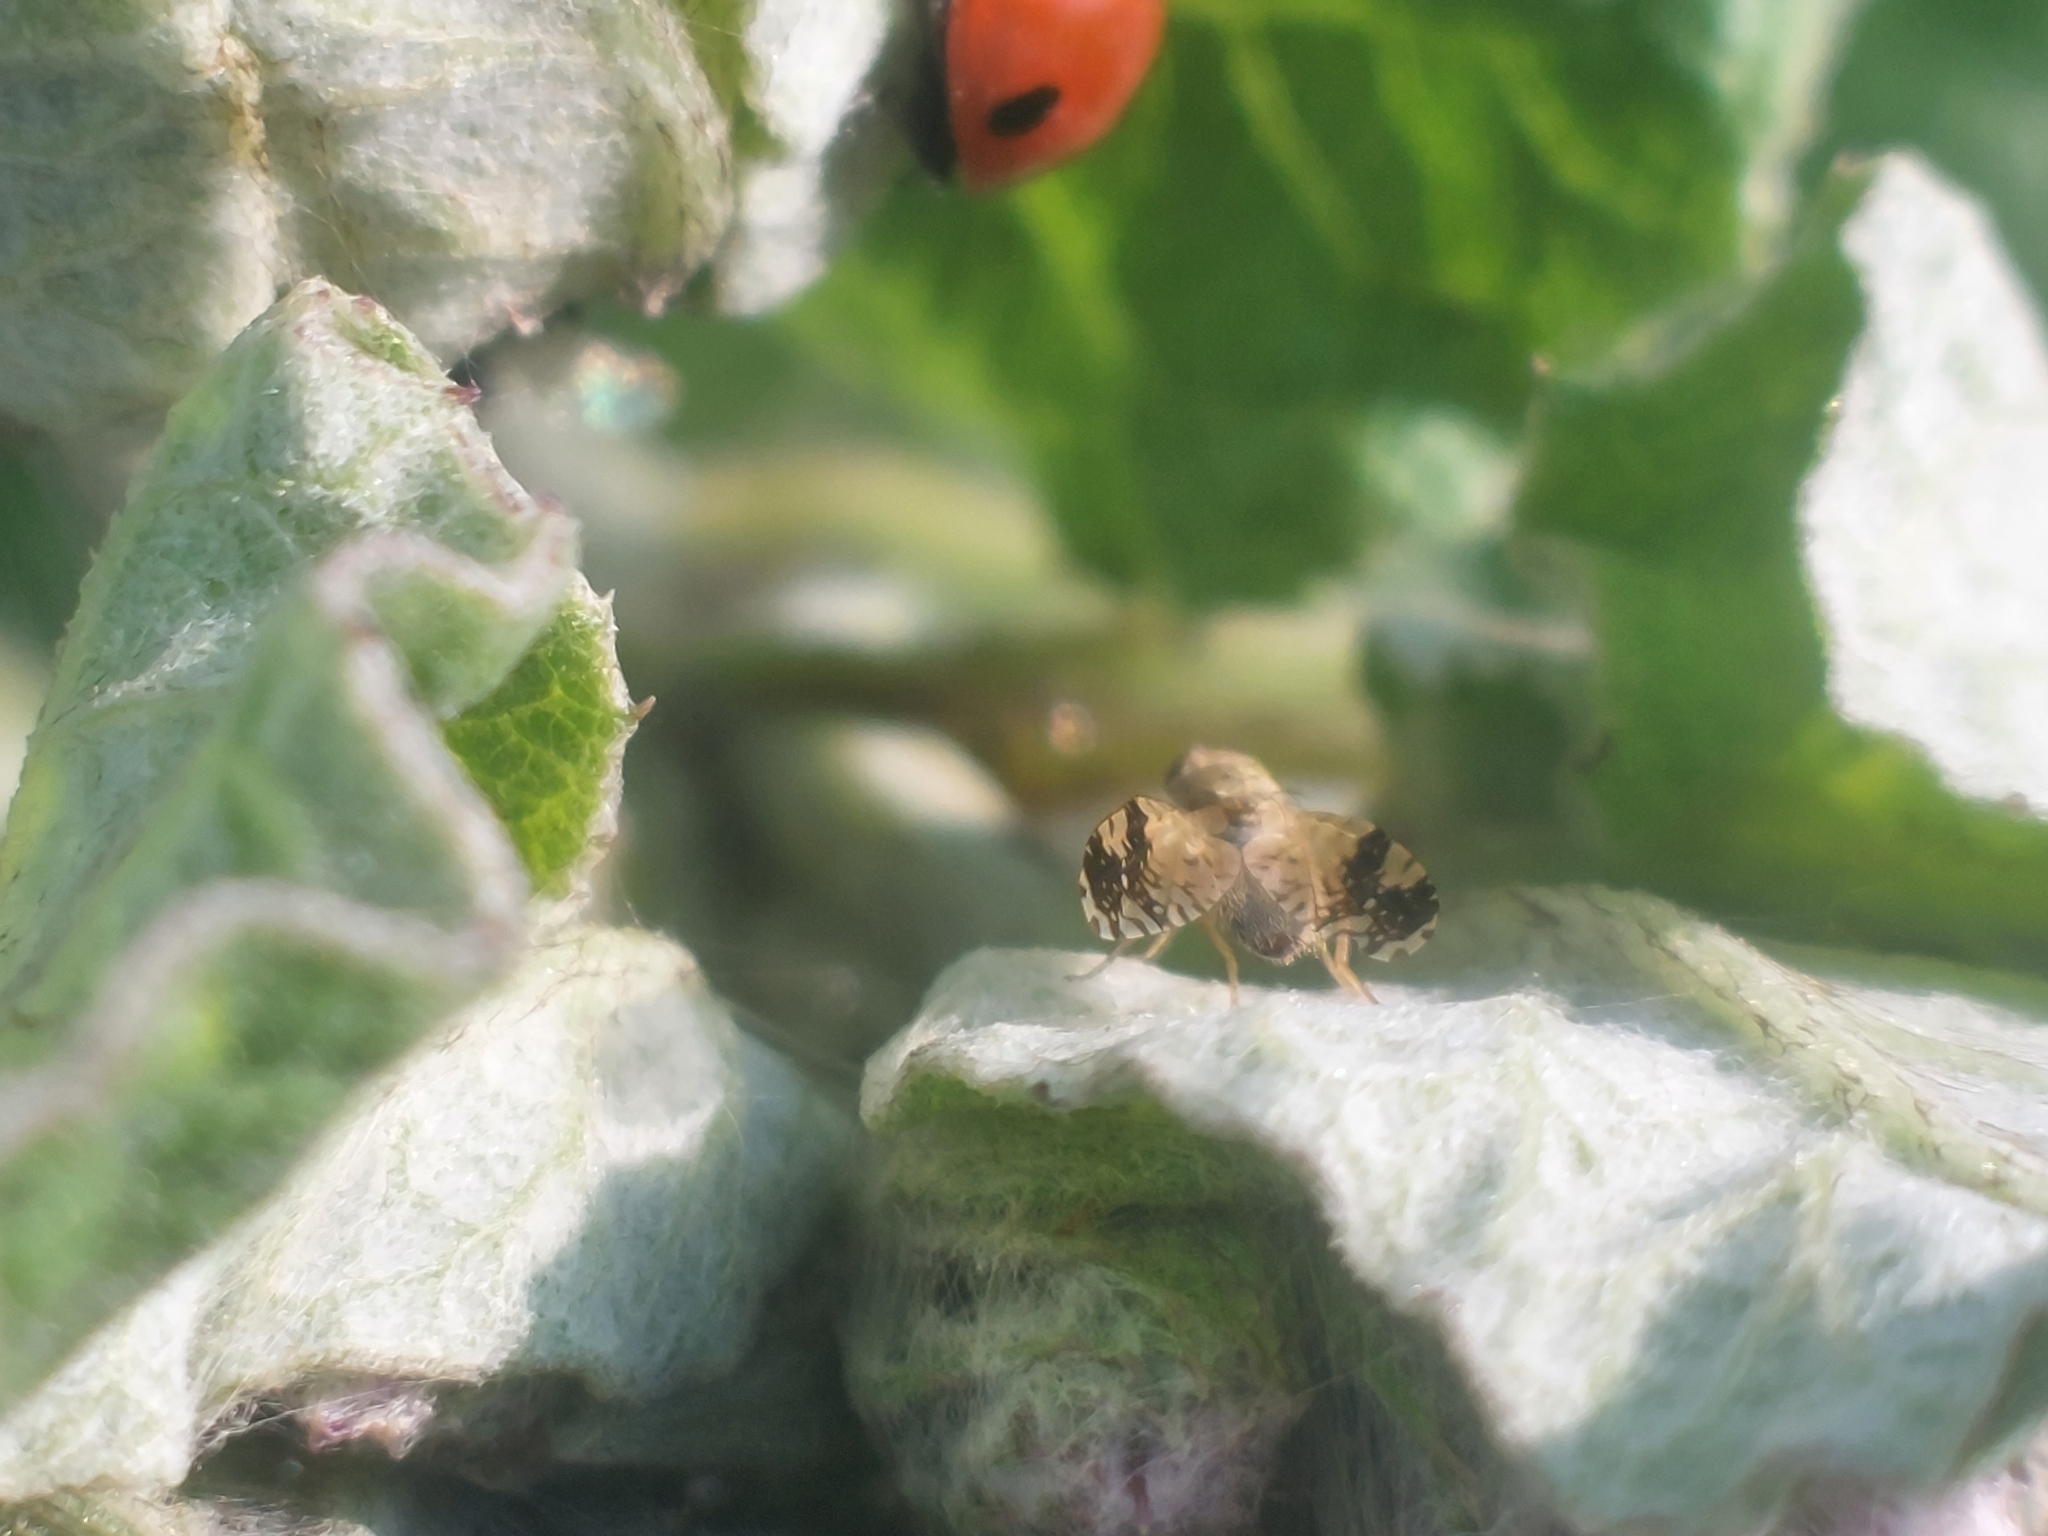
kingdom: Animalia
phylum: Arthropoda
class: Insecta
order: Diptera
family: Tephritidae
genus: Tephritis
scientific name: Tephritis bardanae
